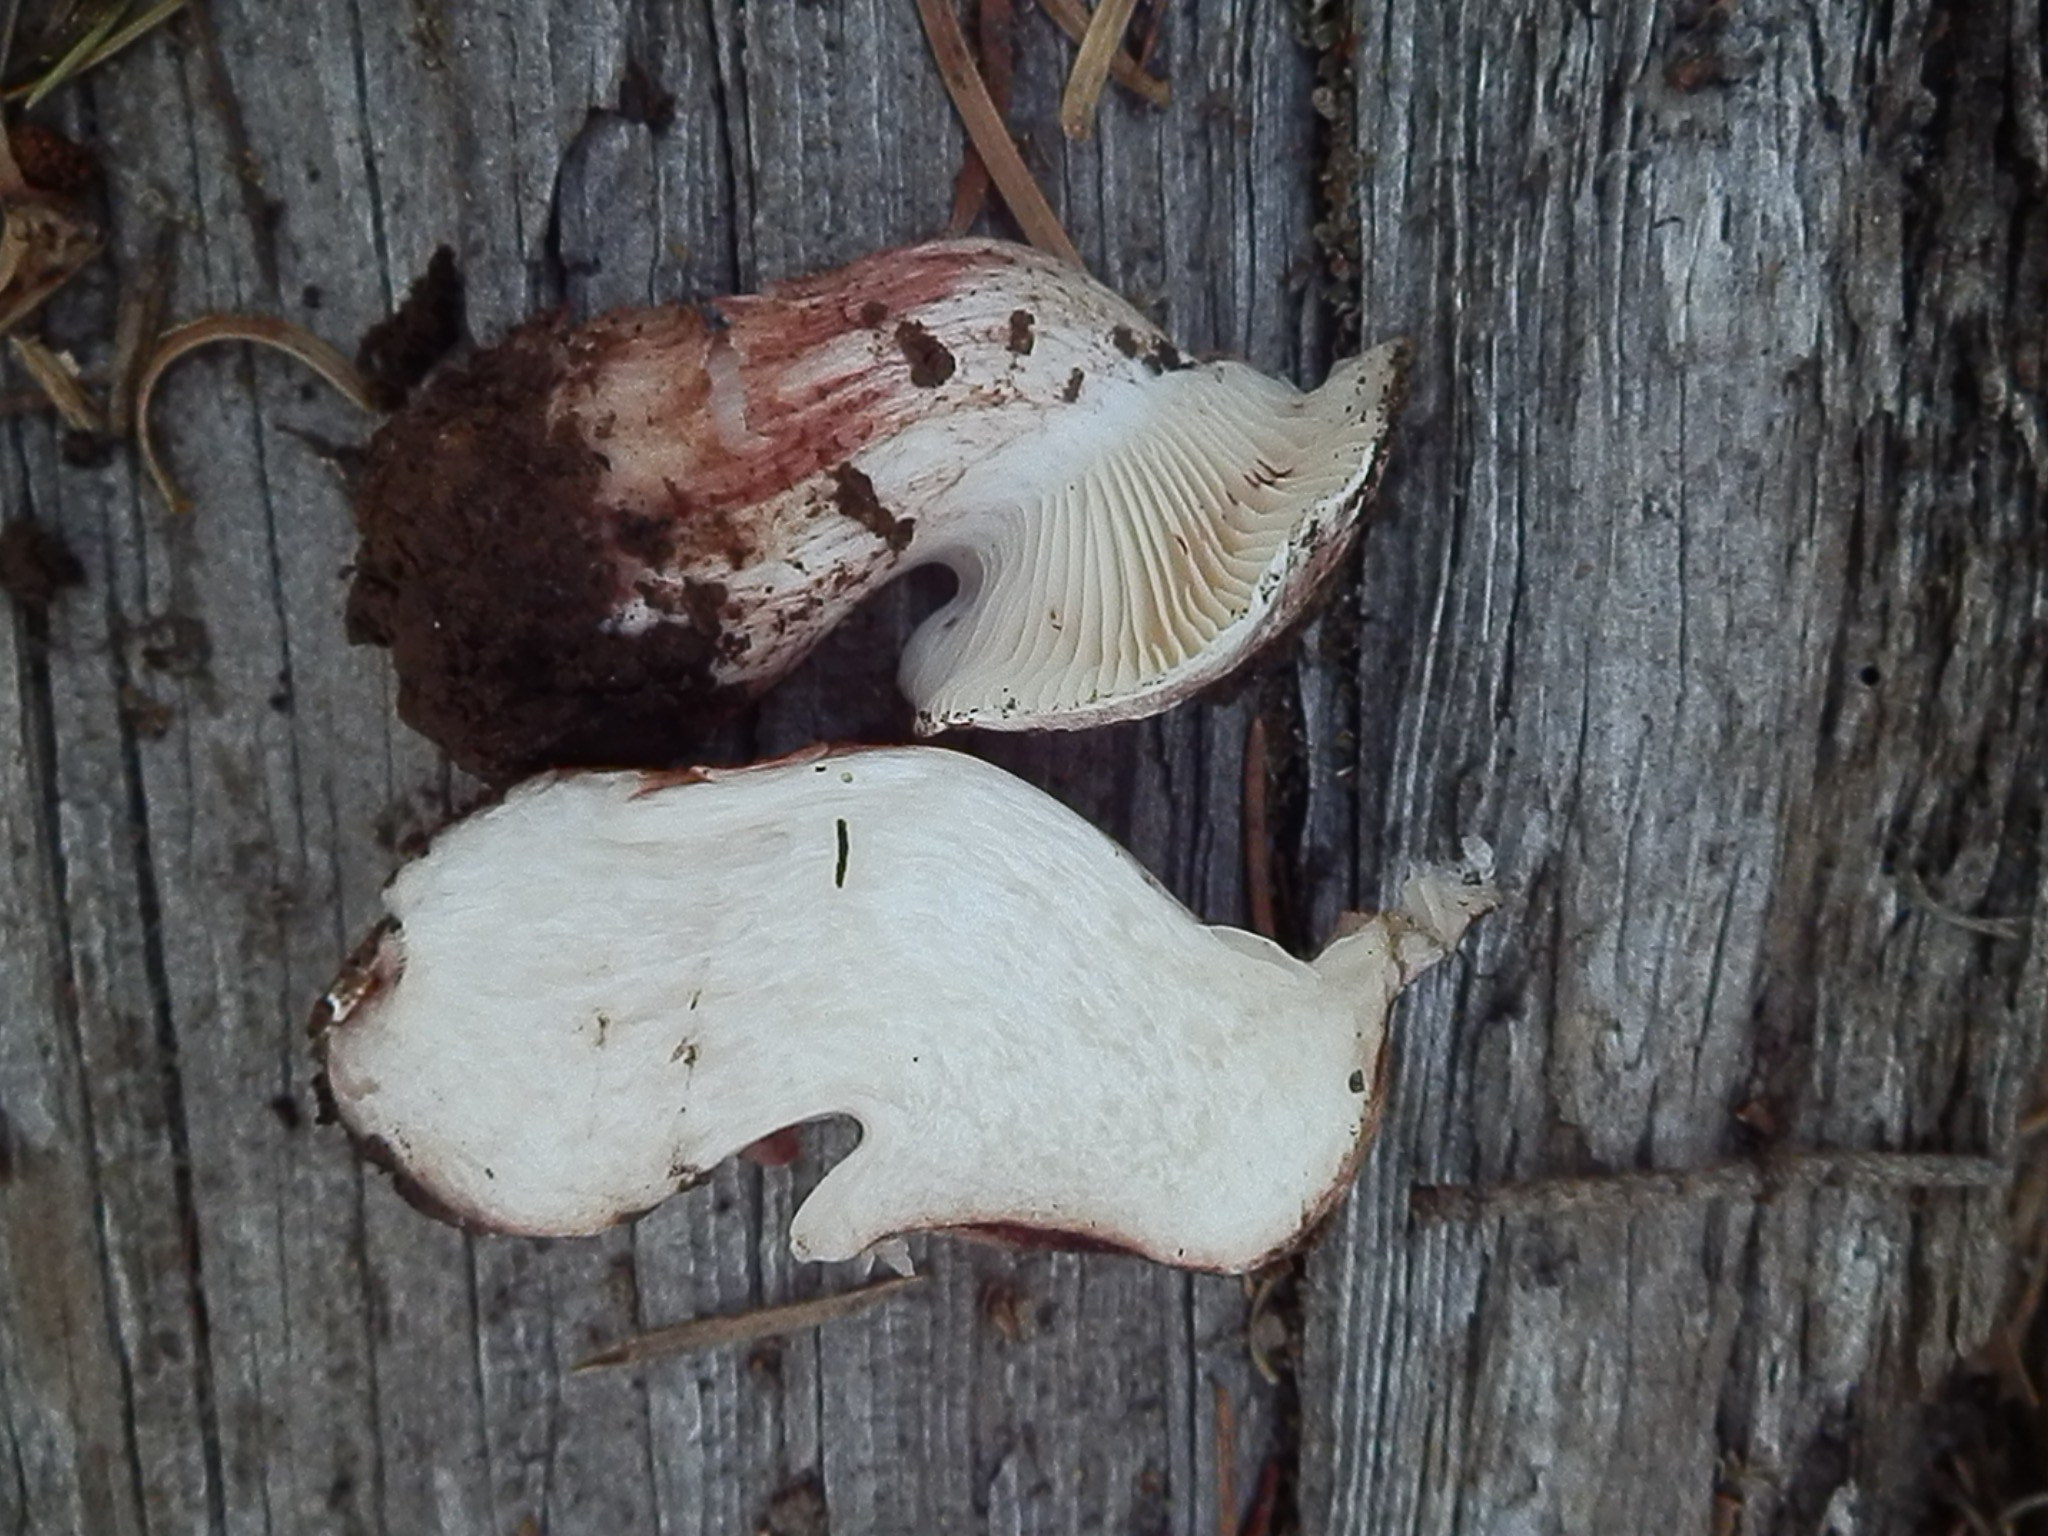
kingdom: Fungi
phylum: Basidiomycota
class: Agaricomycetes
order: Agaricales
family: Hygrophoraceae
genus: Hygrophorus
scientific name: Hygrophorus purpurascens
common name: Veiled purple waxcap
